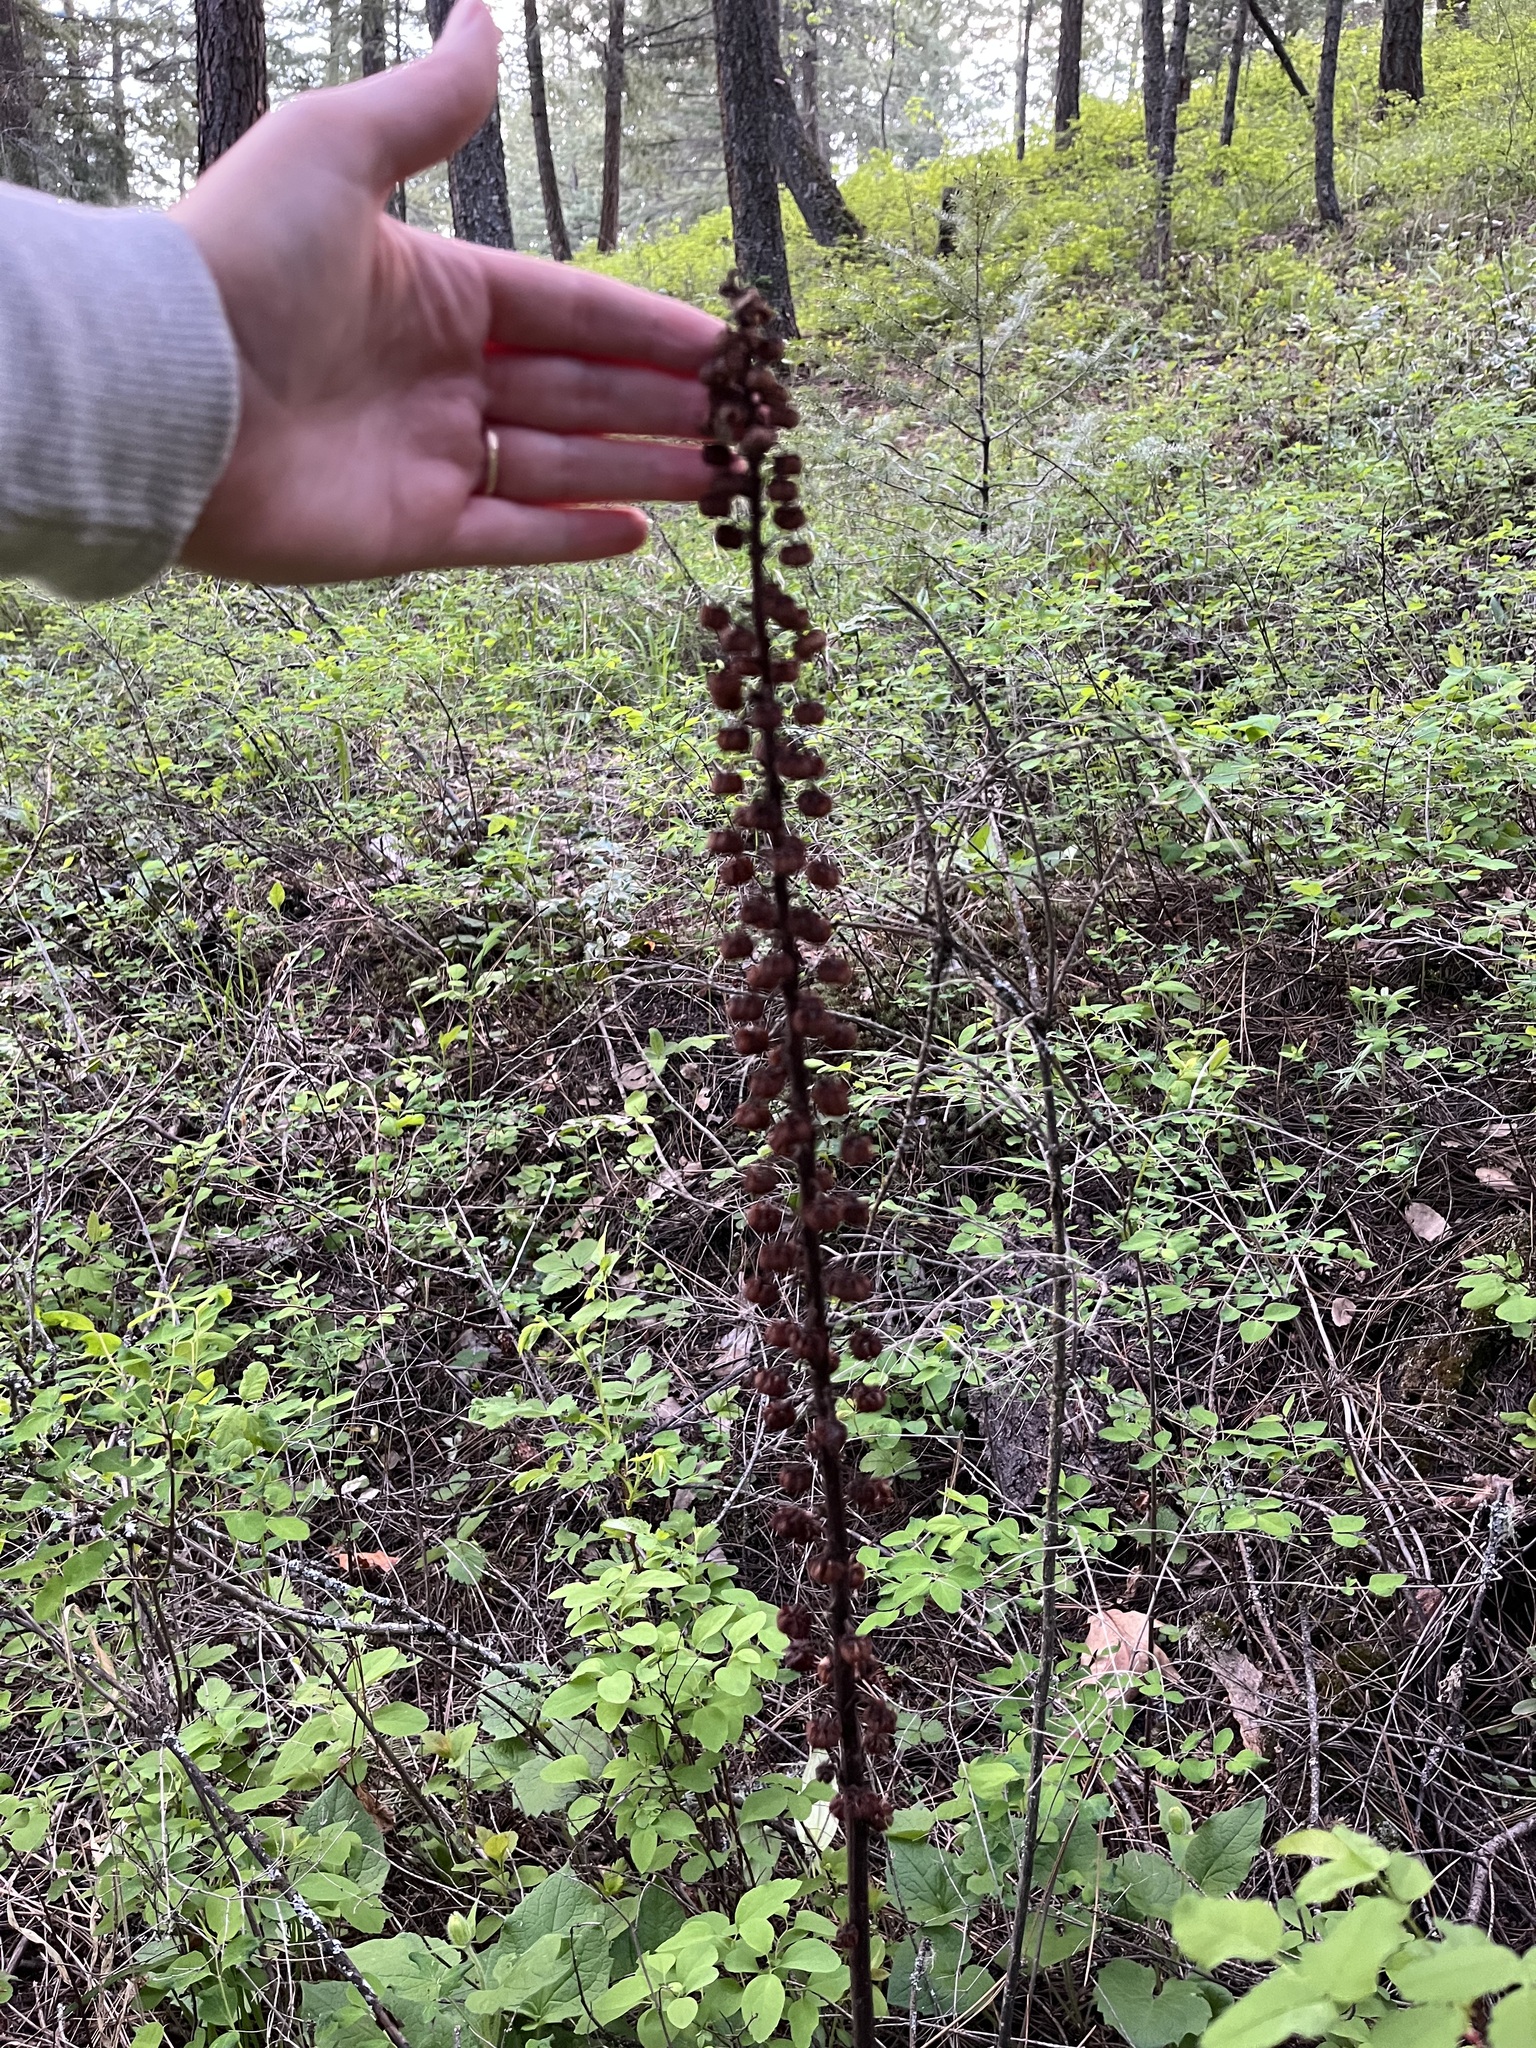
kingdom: Plantae
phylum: Tracheophyta
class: Magnoliopsida
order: Ericales
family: Ericaceae
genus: Pterospora
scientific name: Pterospora andromedea
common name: Giant bird's-nest
